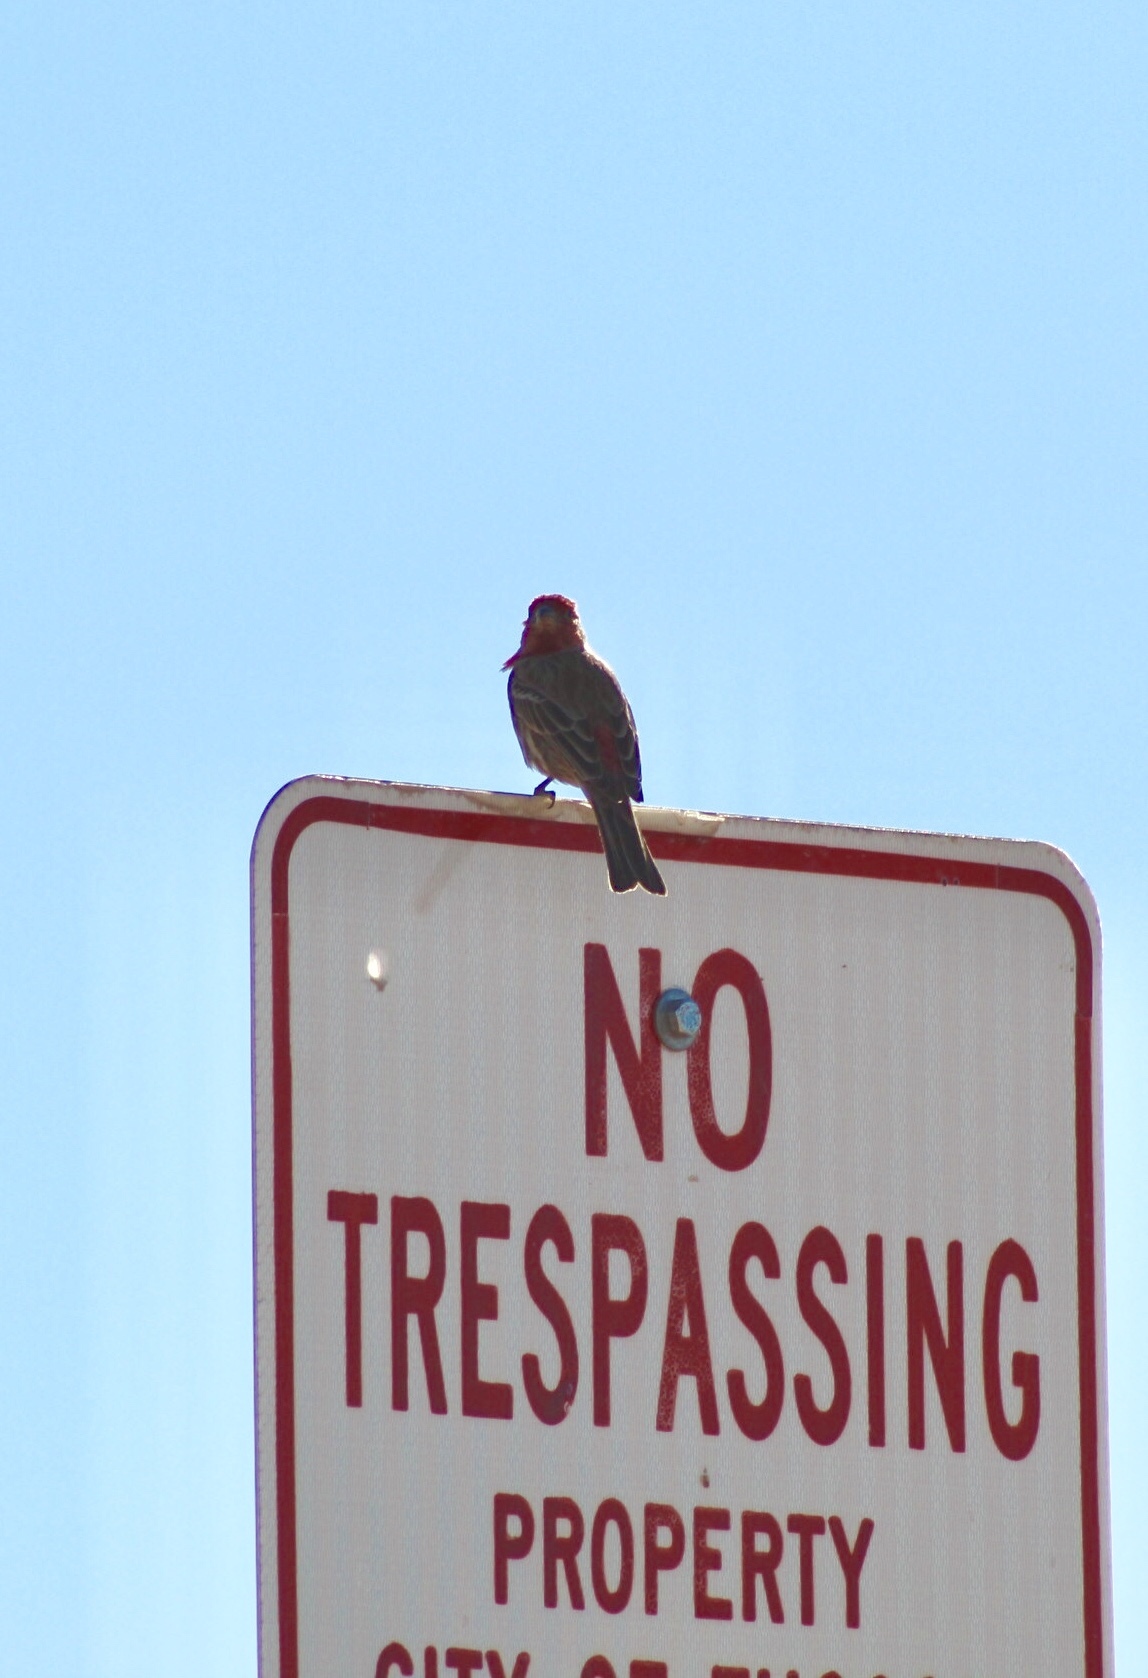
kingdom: Animalia
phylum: Chordata
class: Aves
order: Passeriformes
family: Fringillidae
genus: Haemorhous
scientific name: Haemorhous mexicanus
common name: House finch
